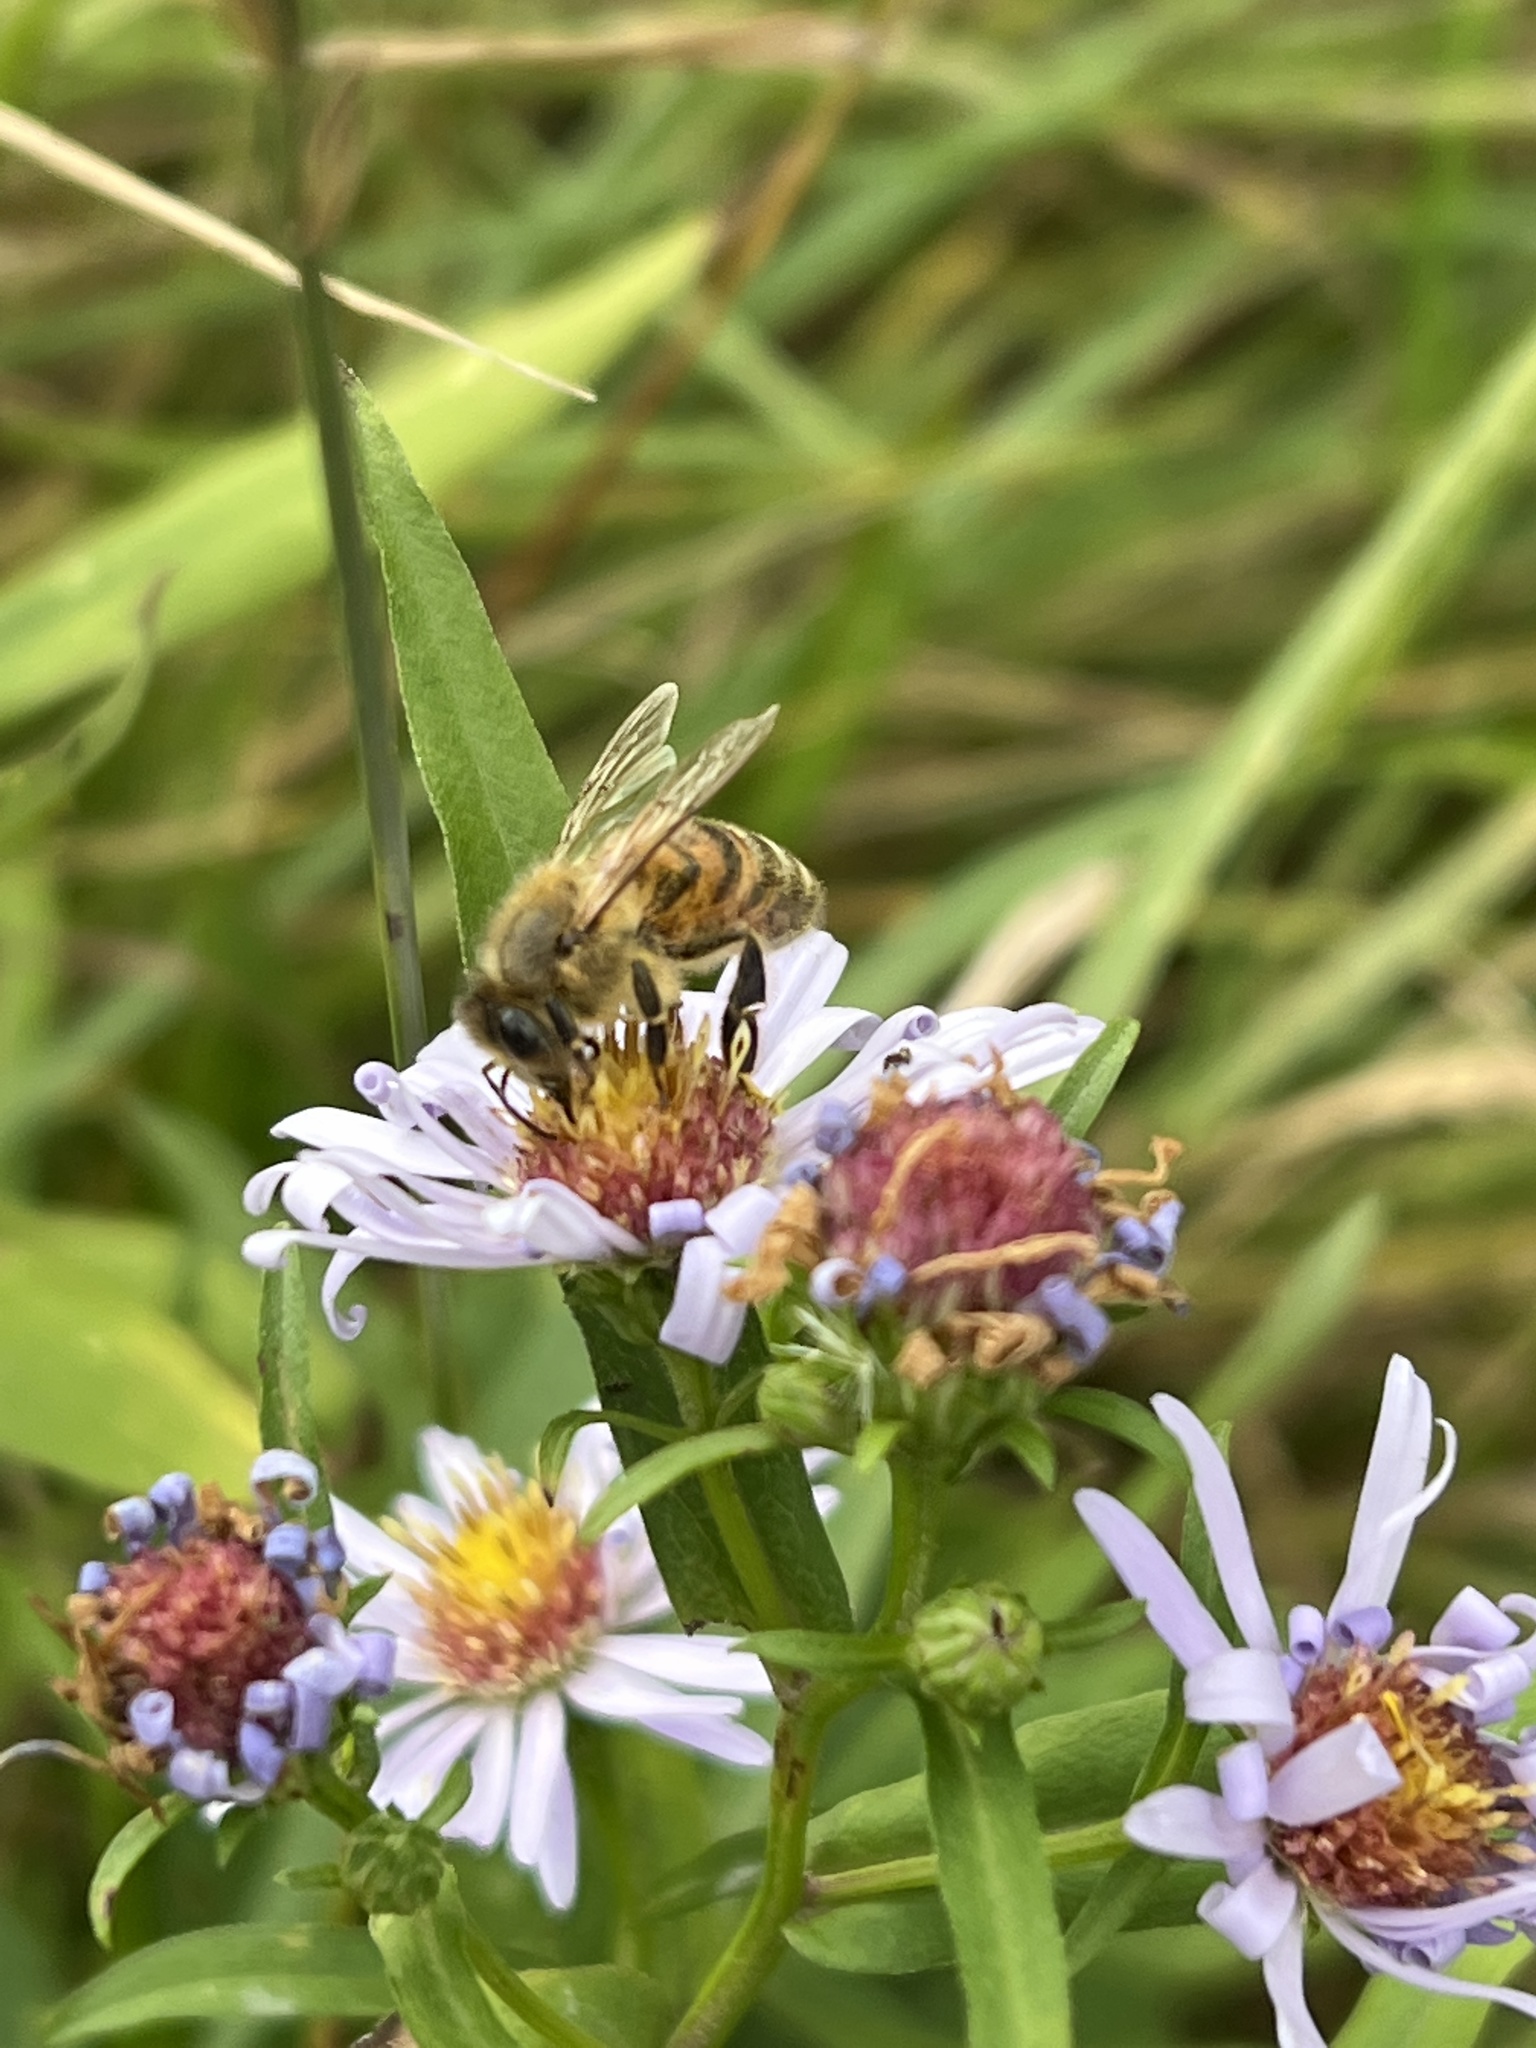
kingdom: Animalia
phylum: Arthropoda
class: Insecta
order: Hymenoptera
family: Apidae
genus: Apis
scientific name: Apis mellifera
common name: Honey bee
